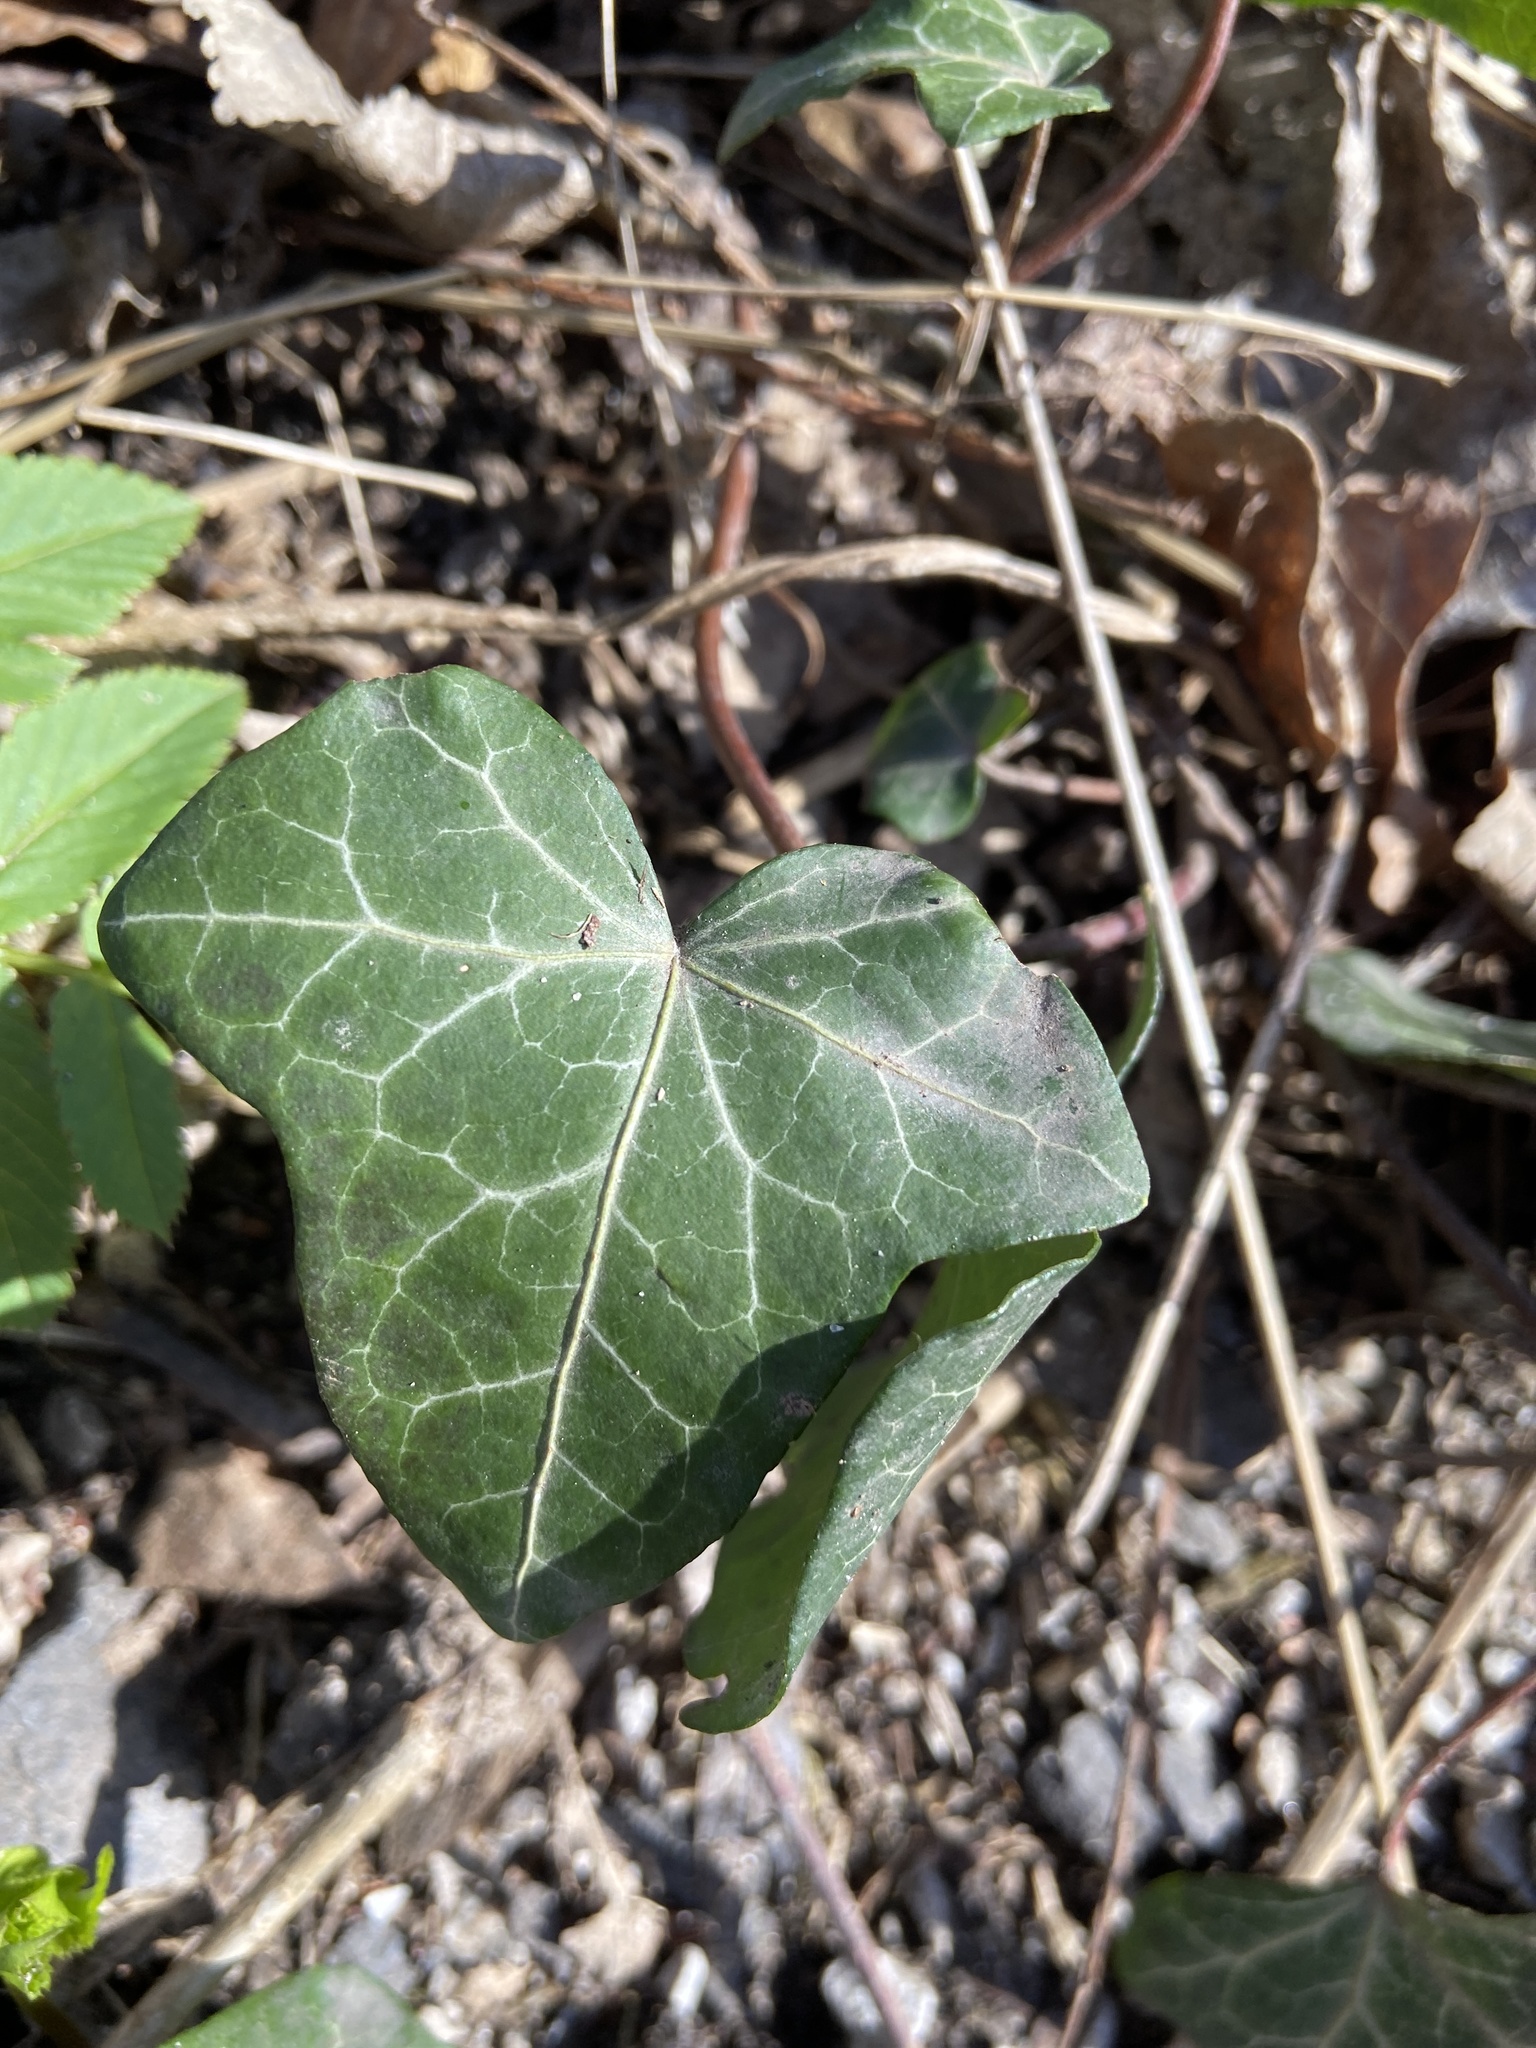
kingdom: Plantae
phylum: Tracheophyta
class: Magnoliopsida
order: Apiales
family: Araliaceae
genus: Hedera
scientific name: Hedera helix
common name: Ivy
